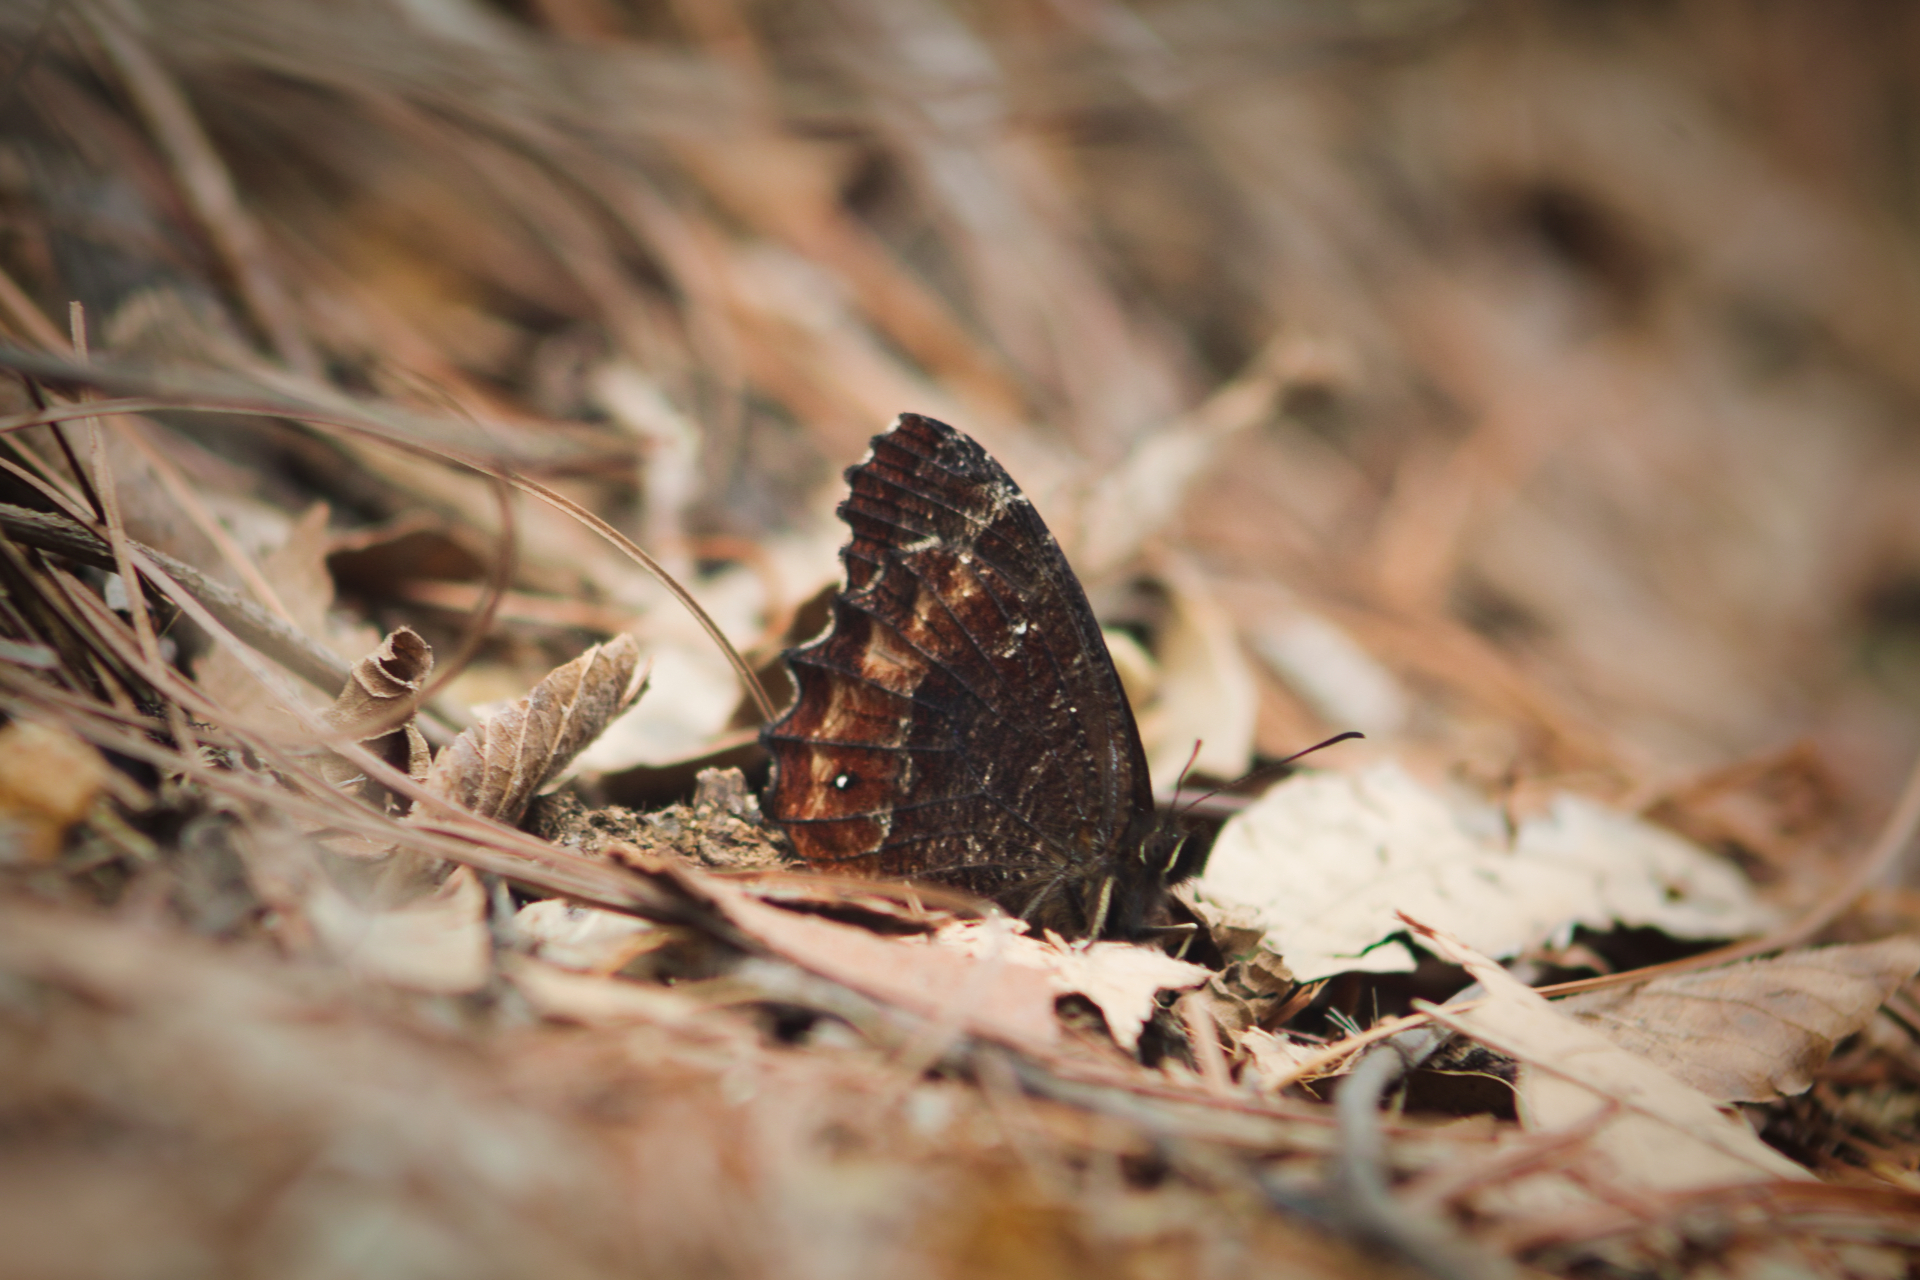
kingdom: Animalia
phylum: Arthropoda
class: Insecta
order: Lepidoptera
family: Nymphalidae
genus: Pedaliodes
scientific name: Pedaliodes pisonia
